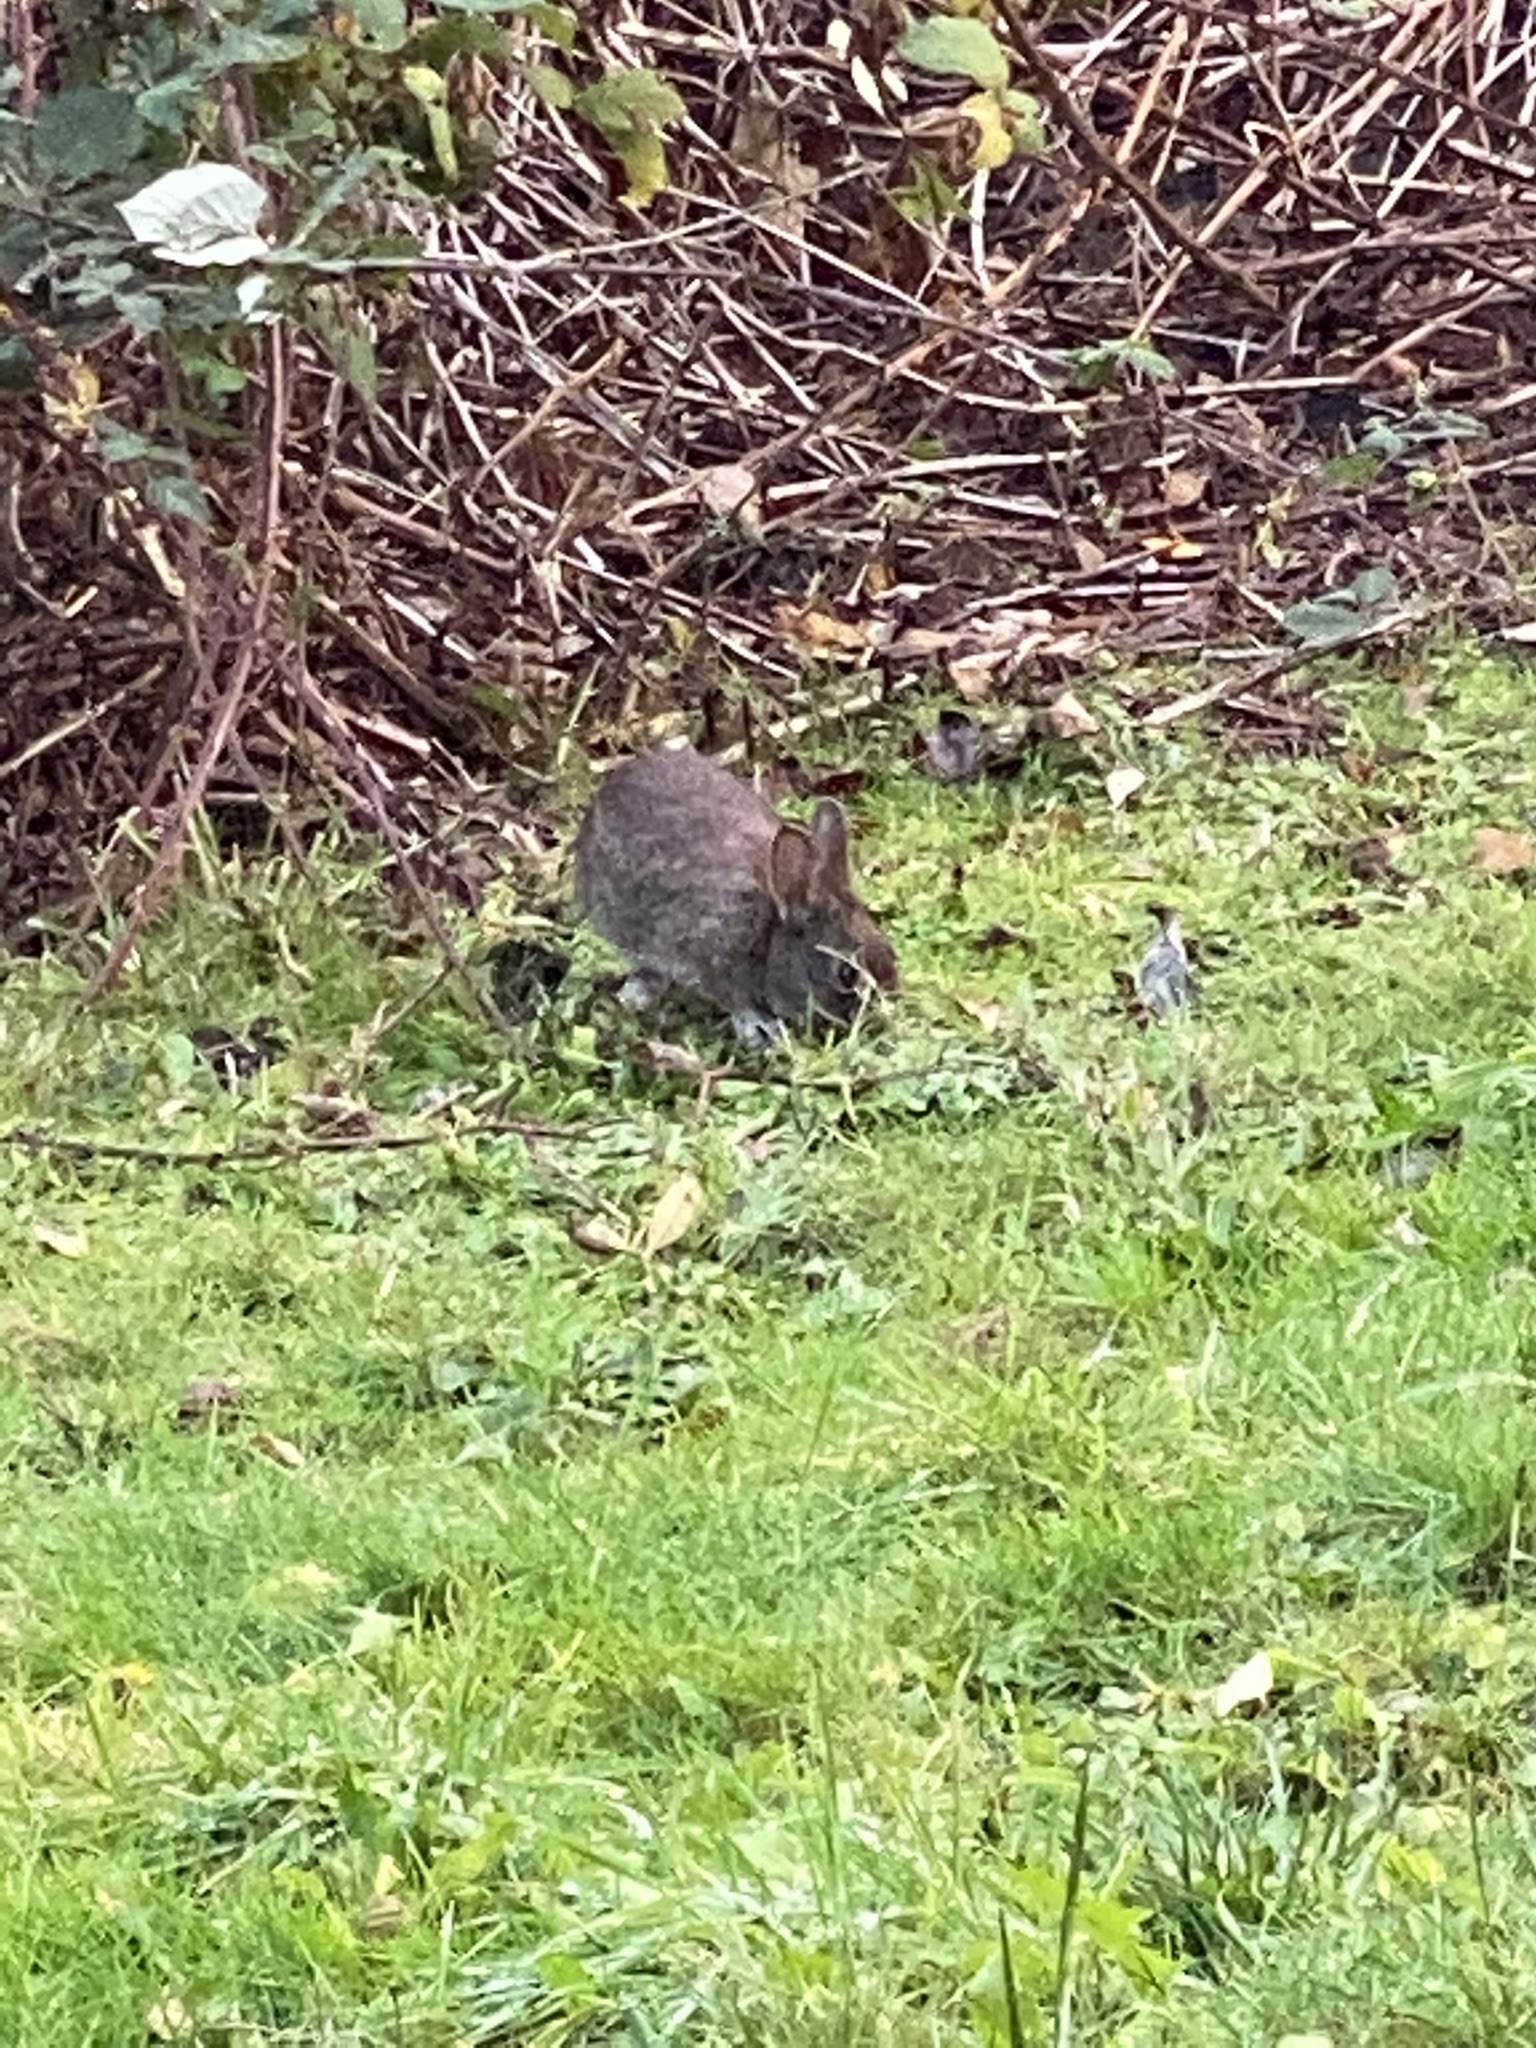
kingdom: Animalia
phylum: Chordata
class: Mammalia
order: Lagomorpha
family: Leporidae
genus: Sylvilagus
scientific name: Sylvilagus bachmani
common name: Brush rabbit
